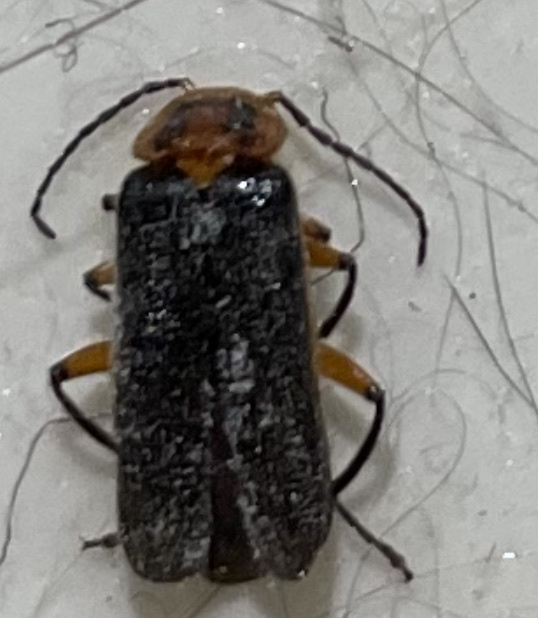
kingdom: Animalia
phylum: Arthropoda
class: Insecta
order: Coleoptera
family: Cantharidae
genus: Atalantycha
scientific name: Atalantycha bilineata
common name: Two-lined leatherwing
